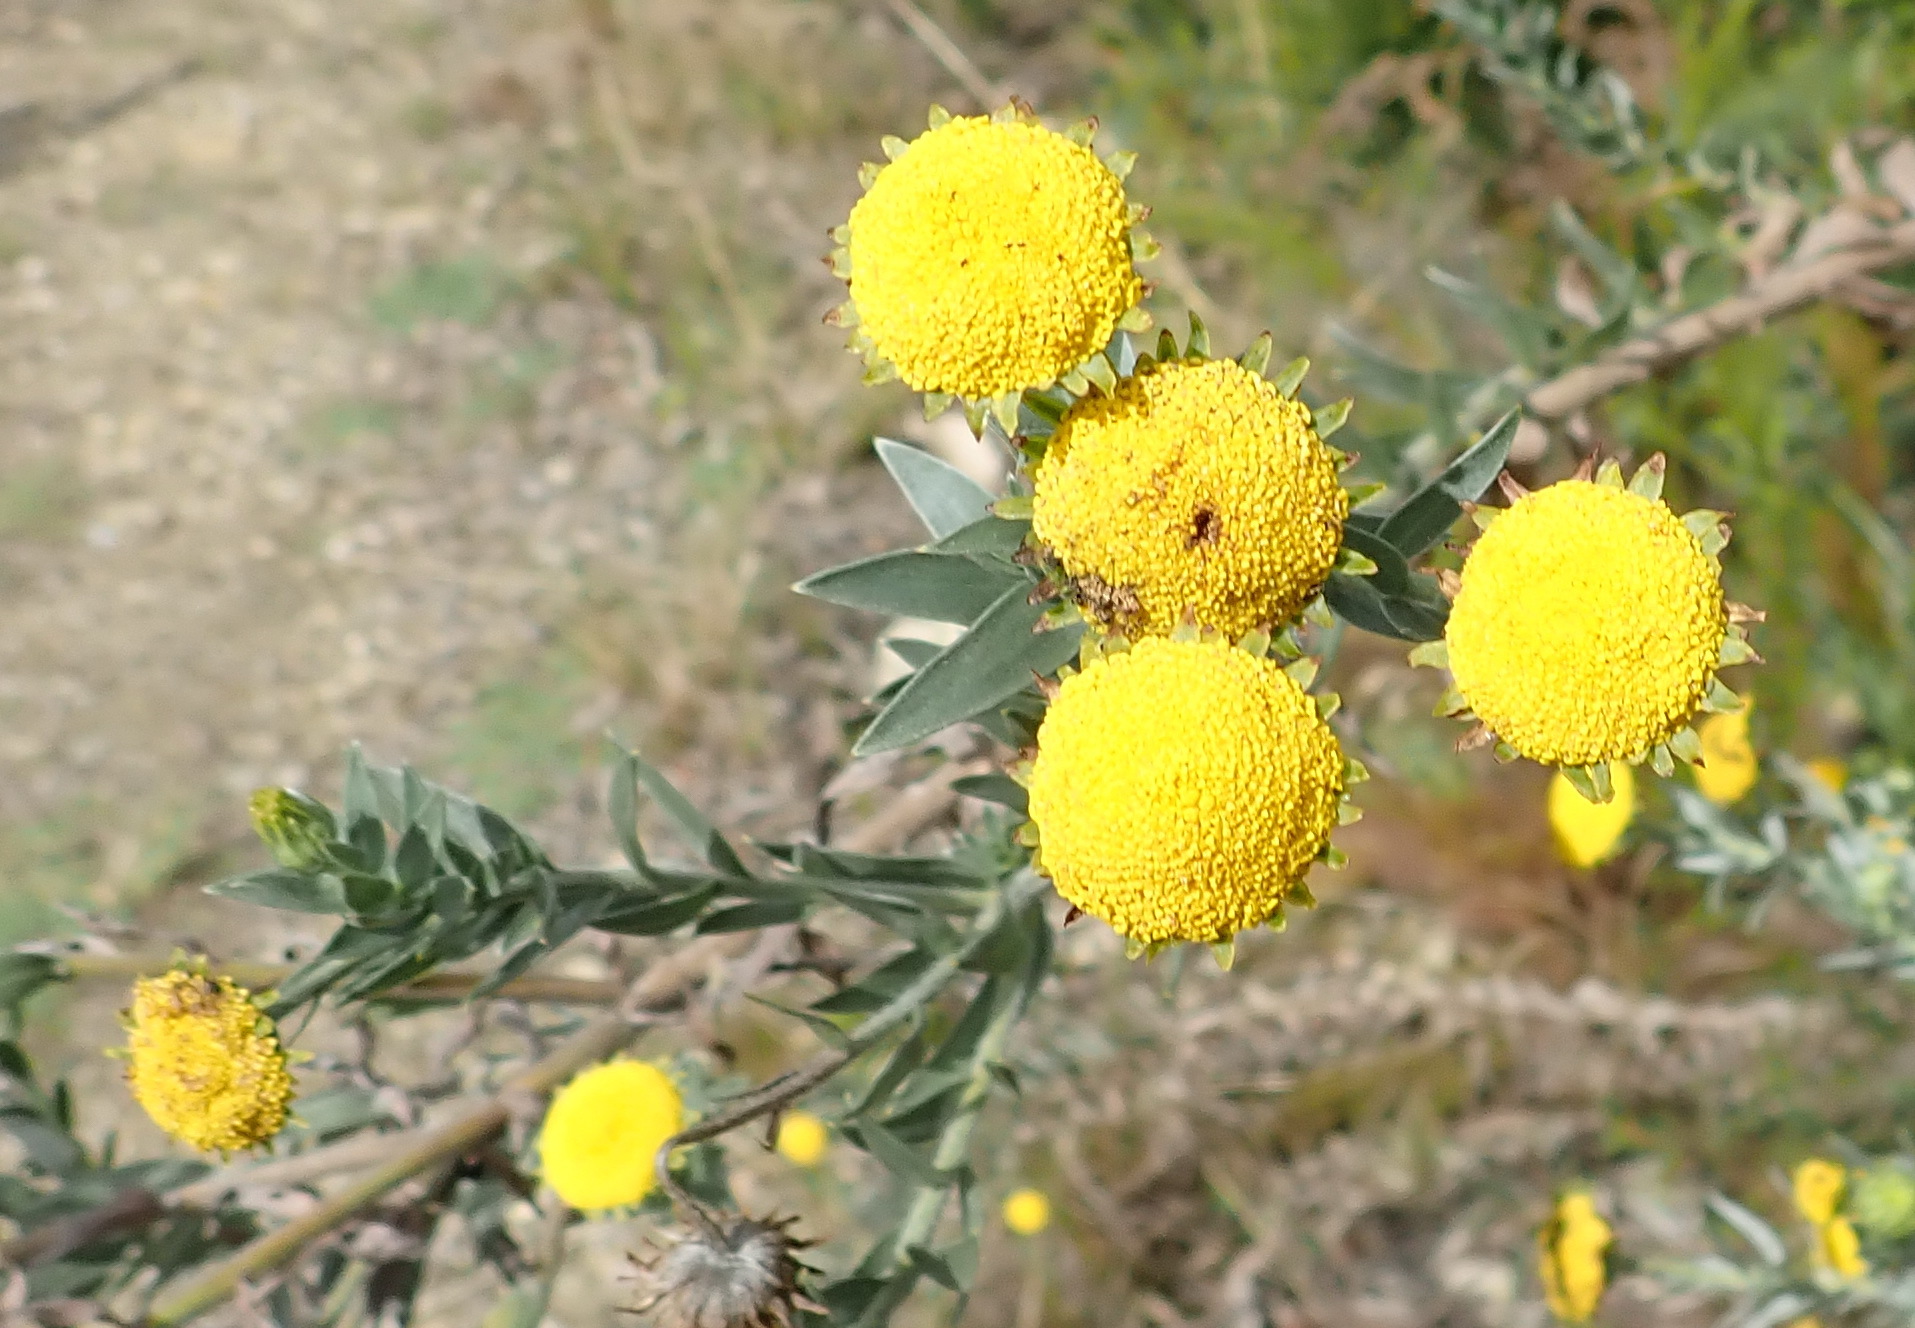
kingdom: Plantae
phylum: Tracheophyta
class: Magnoliopsida
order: Asterales
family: Asteraceae
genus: Schistostephium
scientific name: Schistostephium umbellatum
